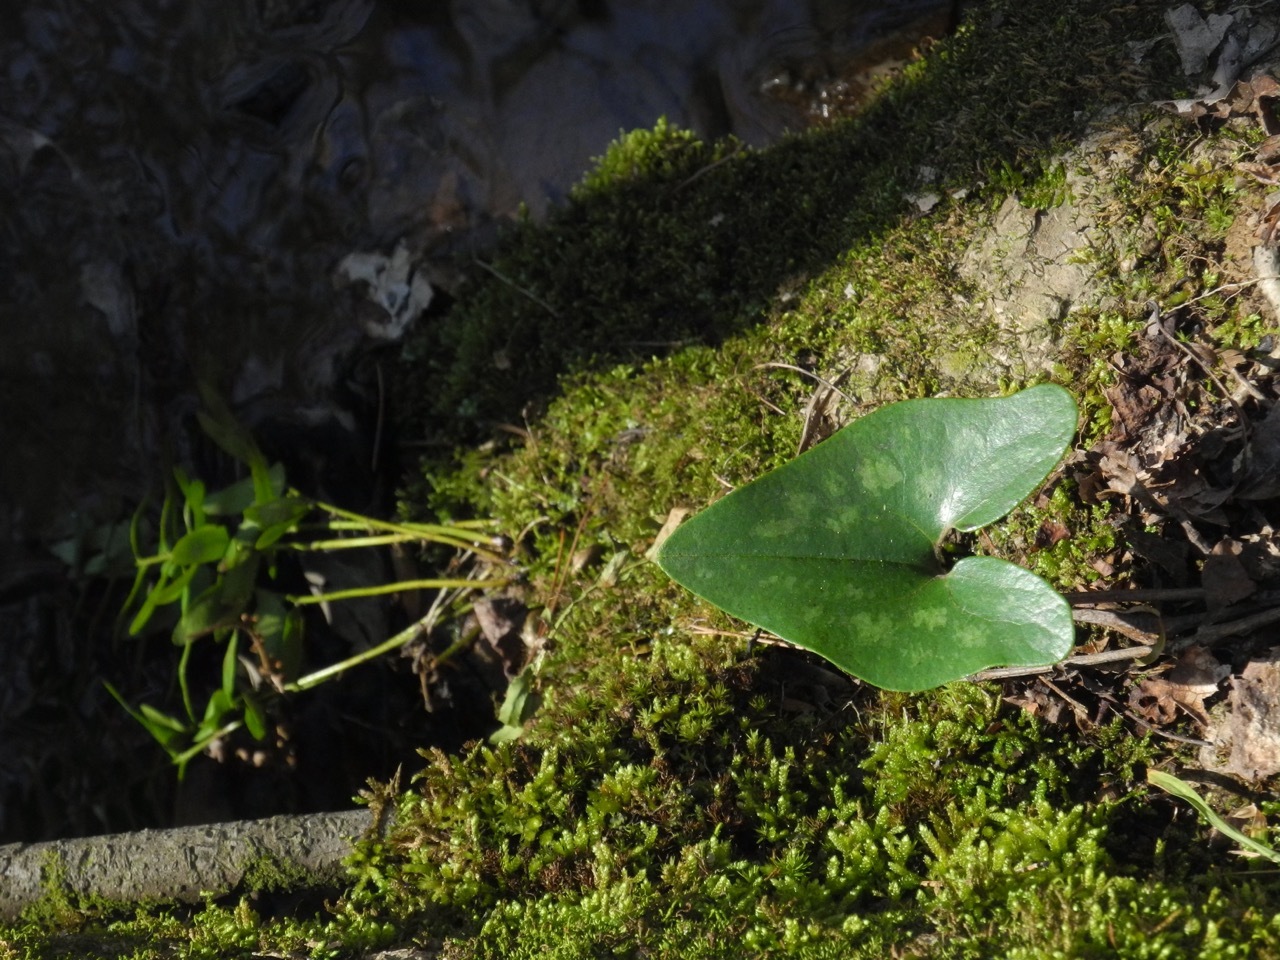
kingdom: Plantae
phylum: Tracheophyta
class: Magnoliopsida
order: Piperales
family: Aristolochiaceae
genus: Hexastylis
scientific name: Hexastylis arifolia
